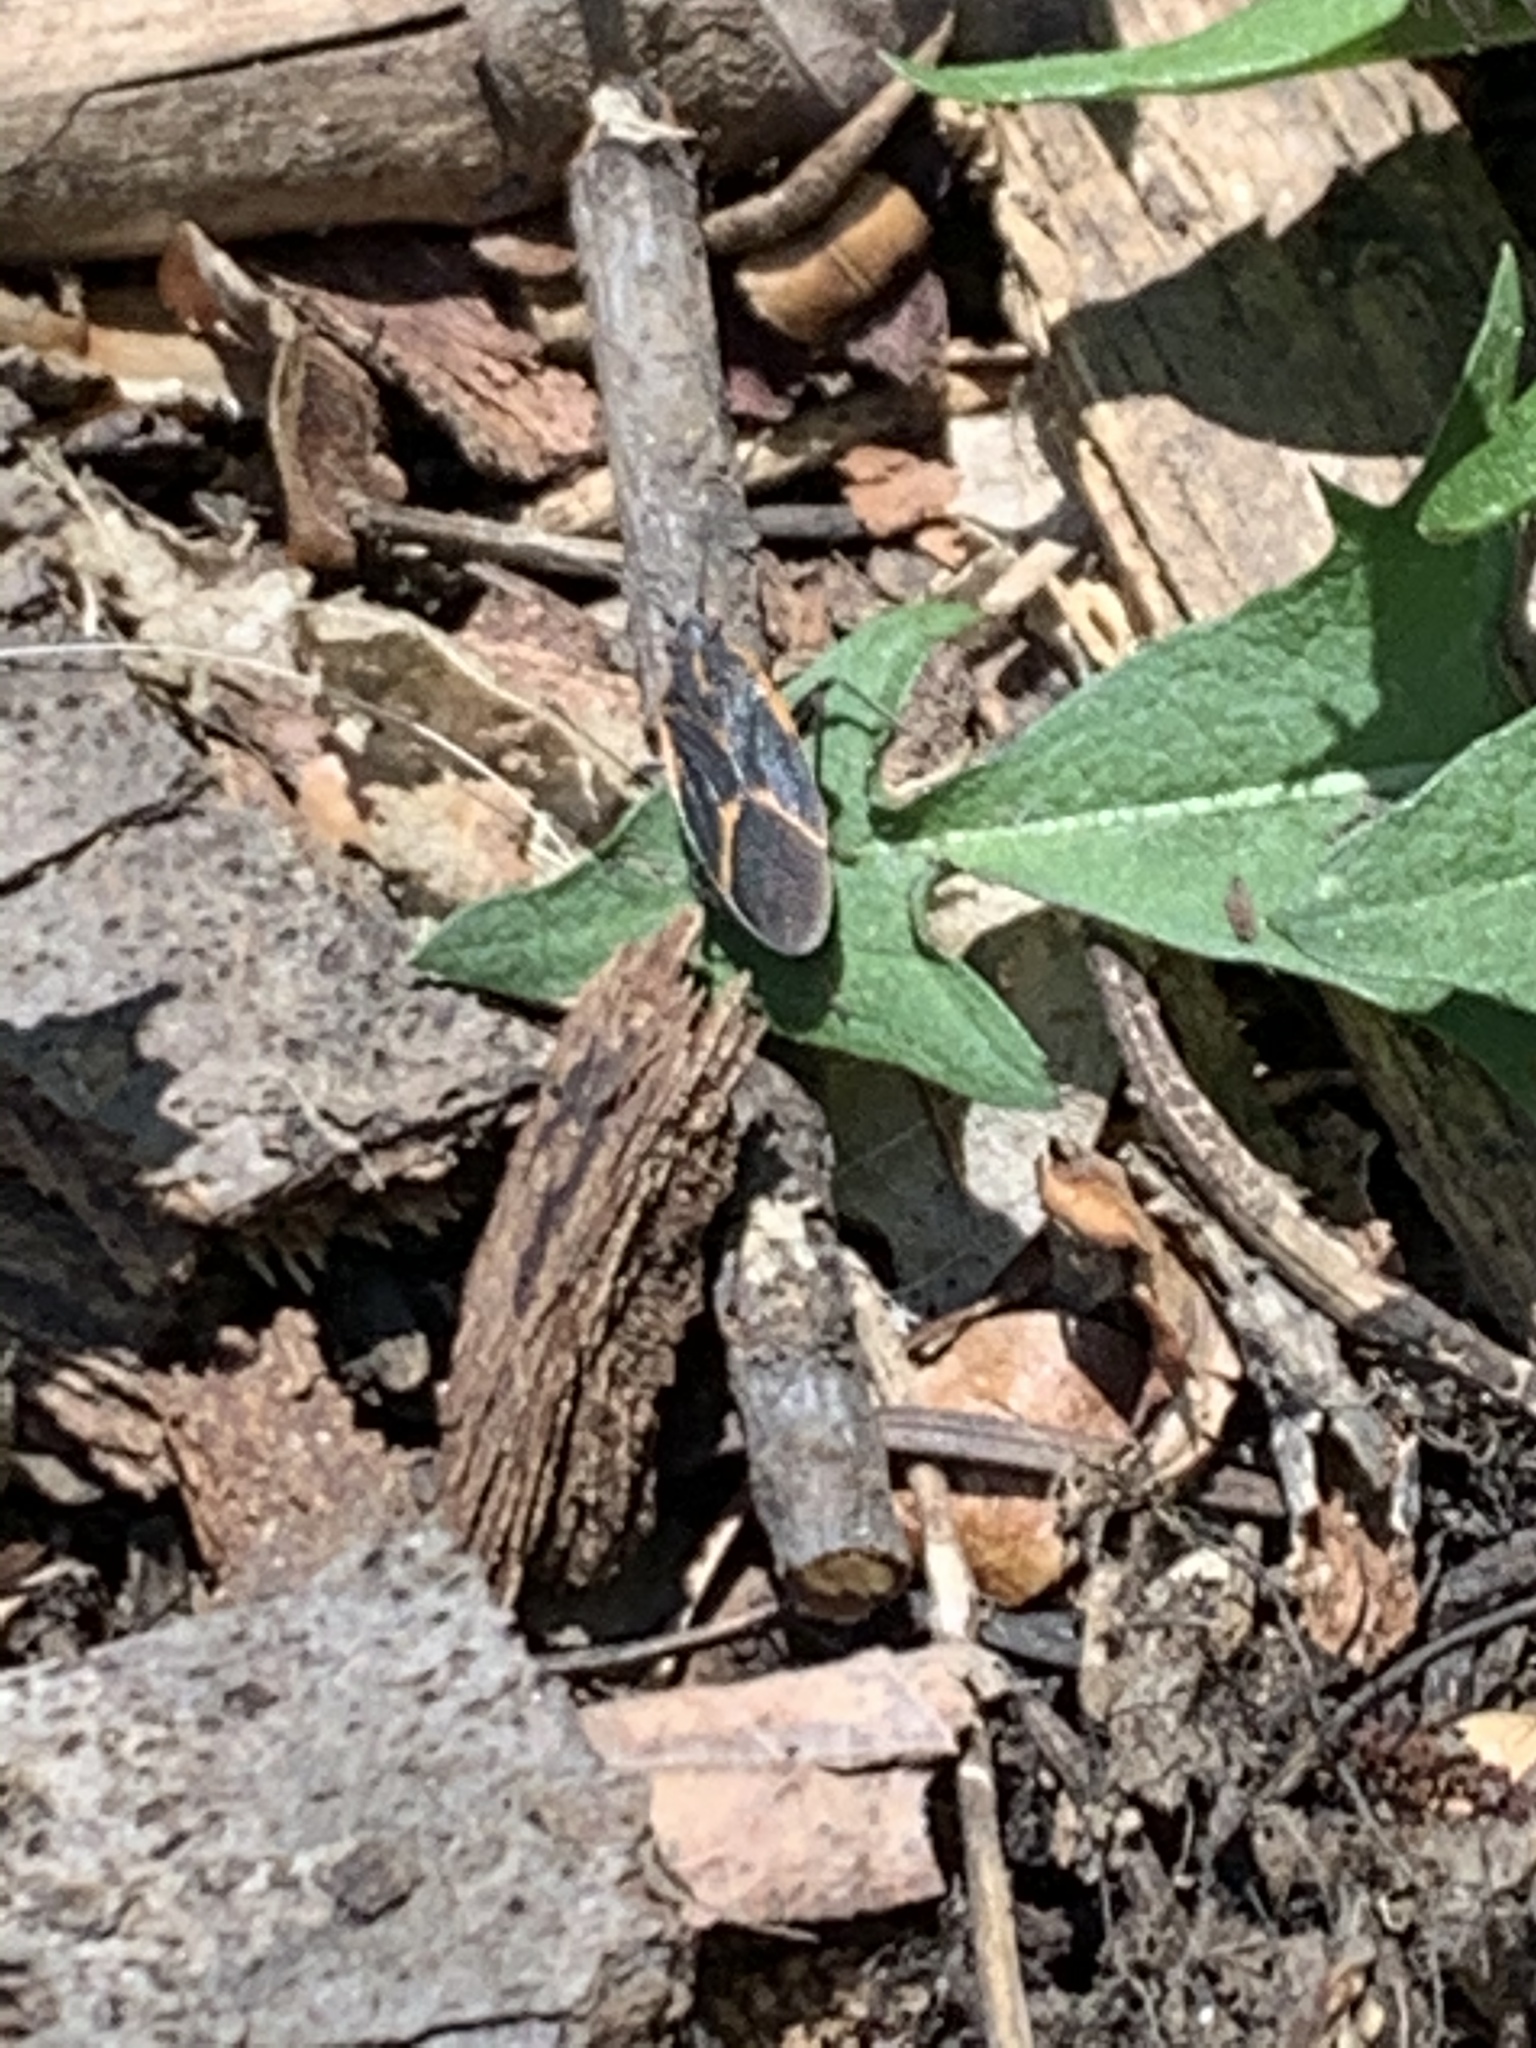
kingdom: Animalia
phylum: Arthropoda
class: Insecta
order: Hemiptera
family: Rhopalidae
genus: Boisea
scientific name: Boisea trivittata
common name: Boxelder bug
